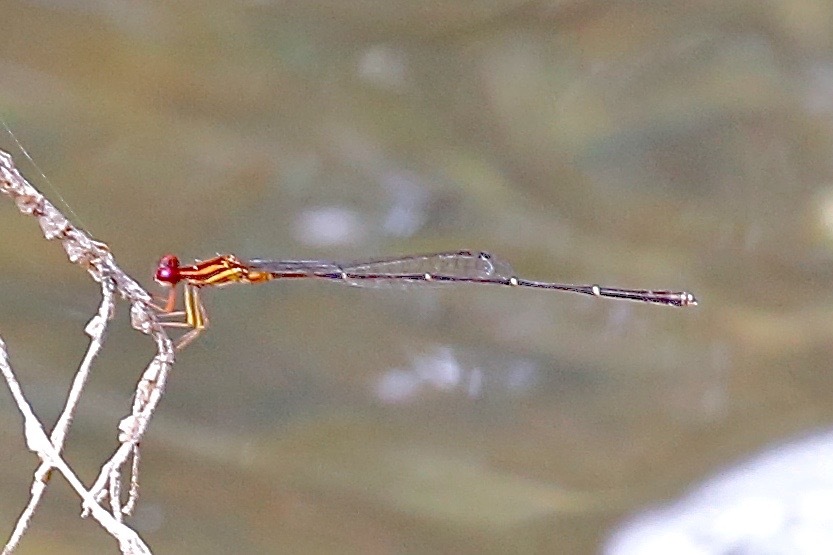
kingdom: Animalia
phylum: Arthropoda
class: Insecta
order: Odonata
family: Coenagrionidae
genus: Protoneura
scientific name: Protoneura cara
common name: Orange-striped threadtail
